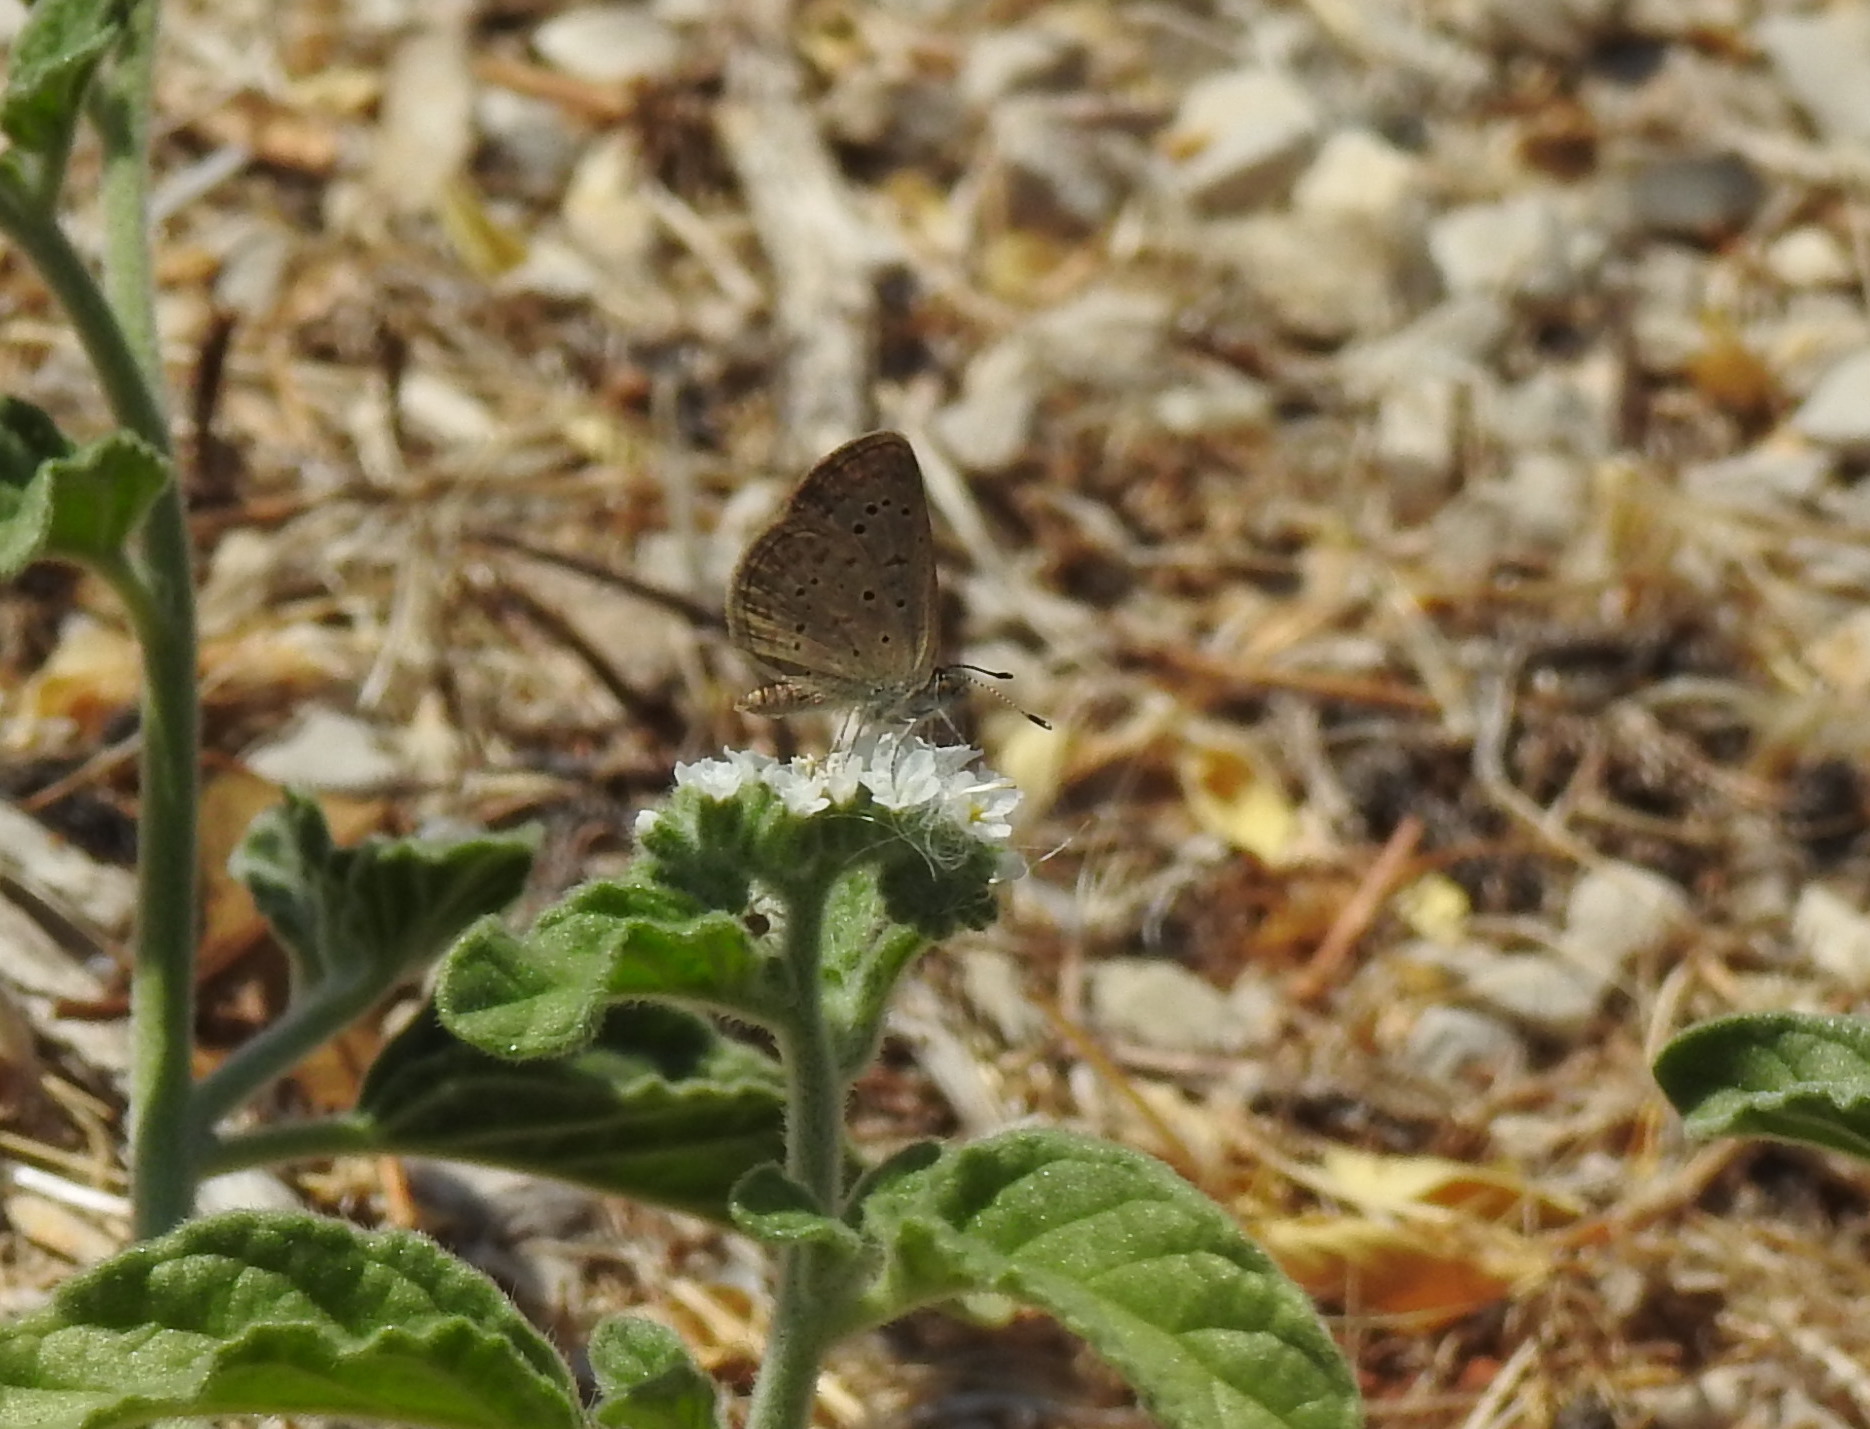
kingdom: Animalia
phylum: Arthropoda
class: Insecta
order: Lepidoptera
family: Lycaenidae
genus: Zizeeria
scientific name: Zizeeria knysna
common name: African grass blue
